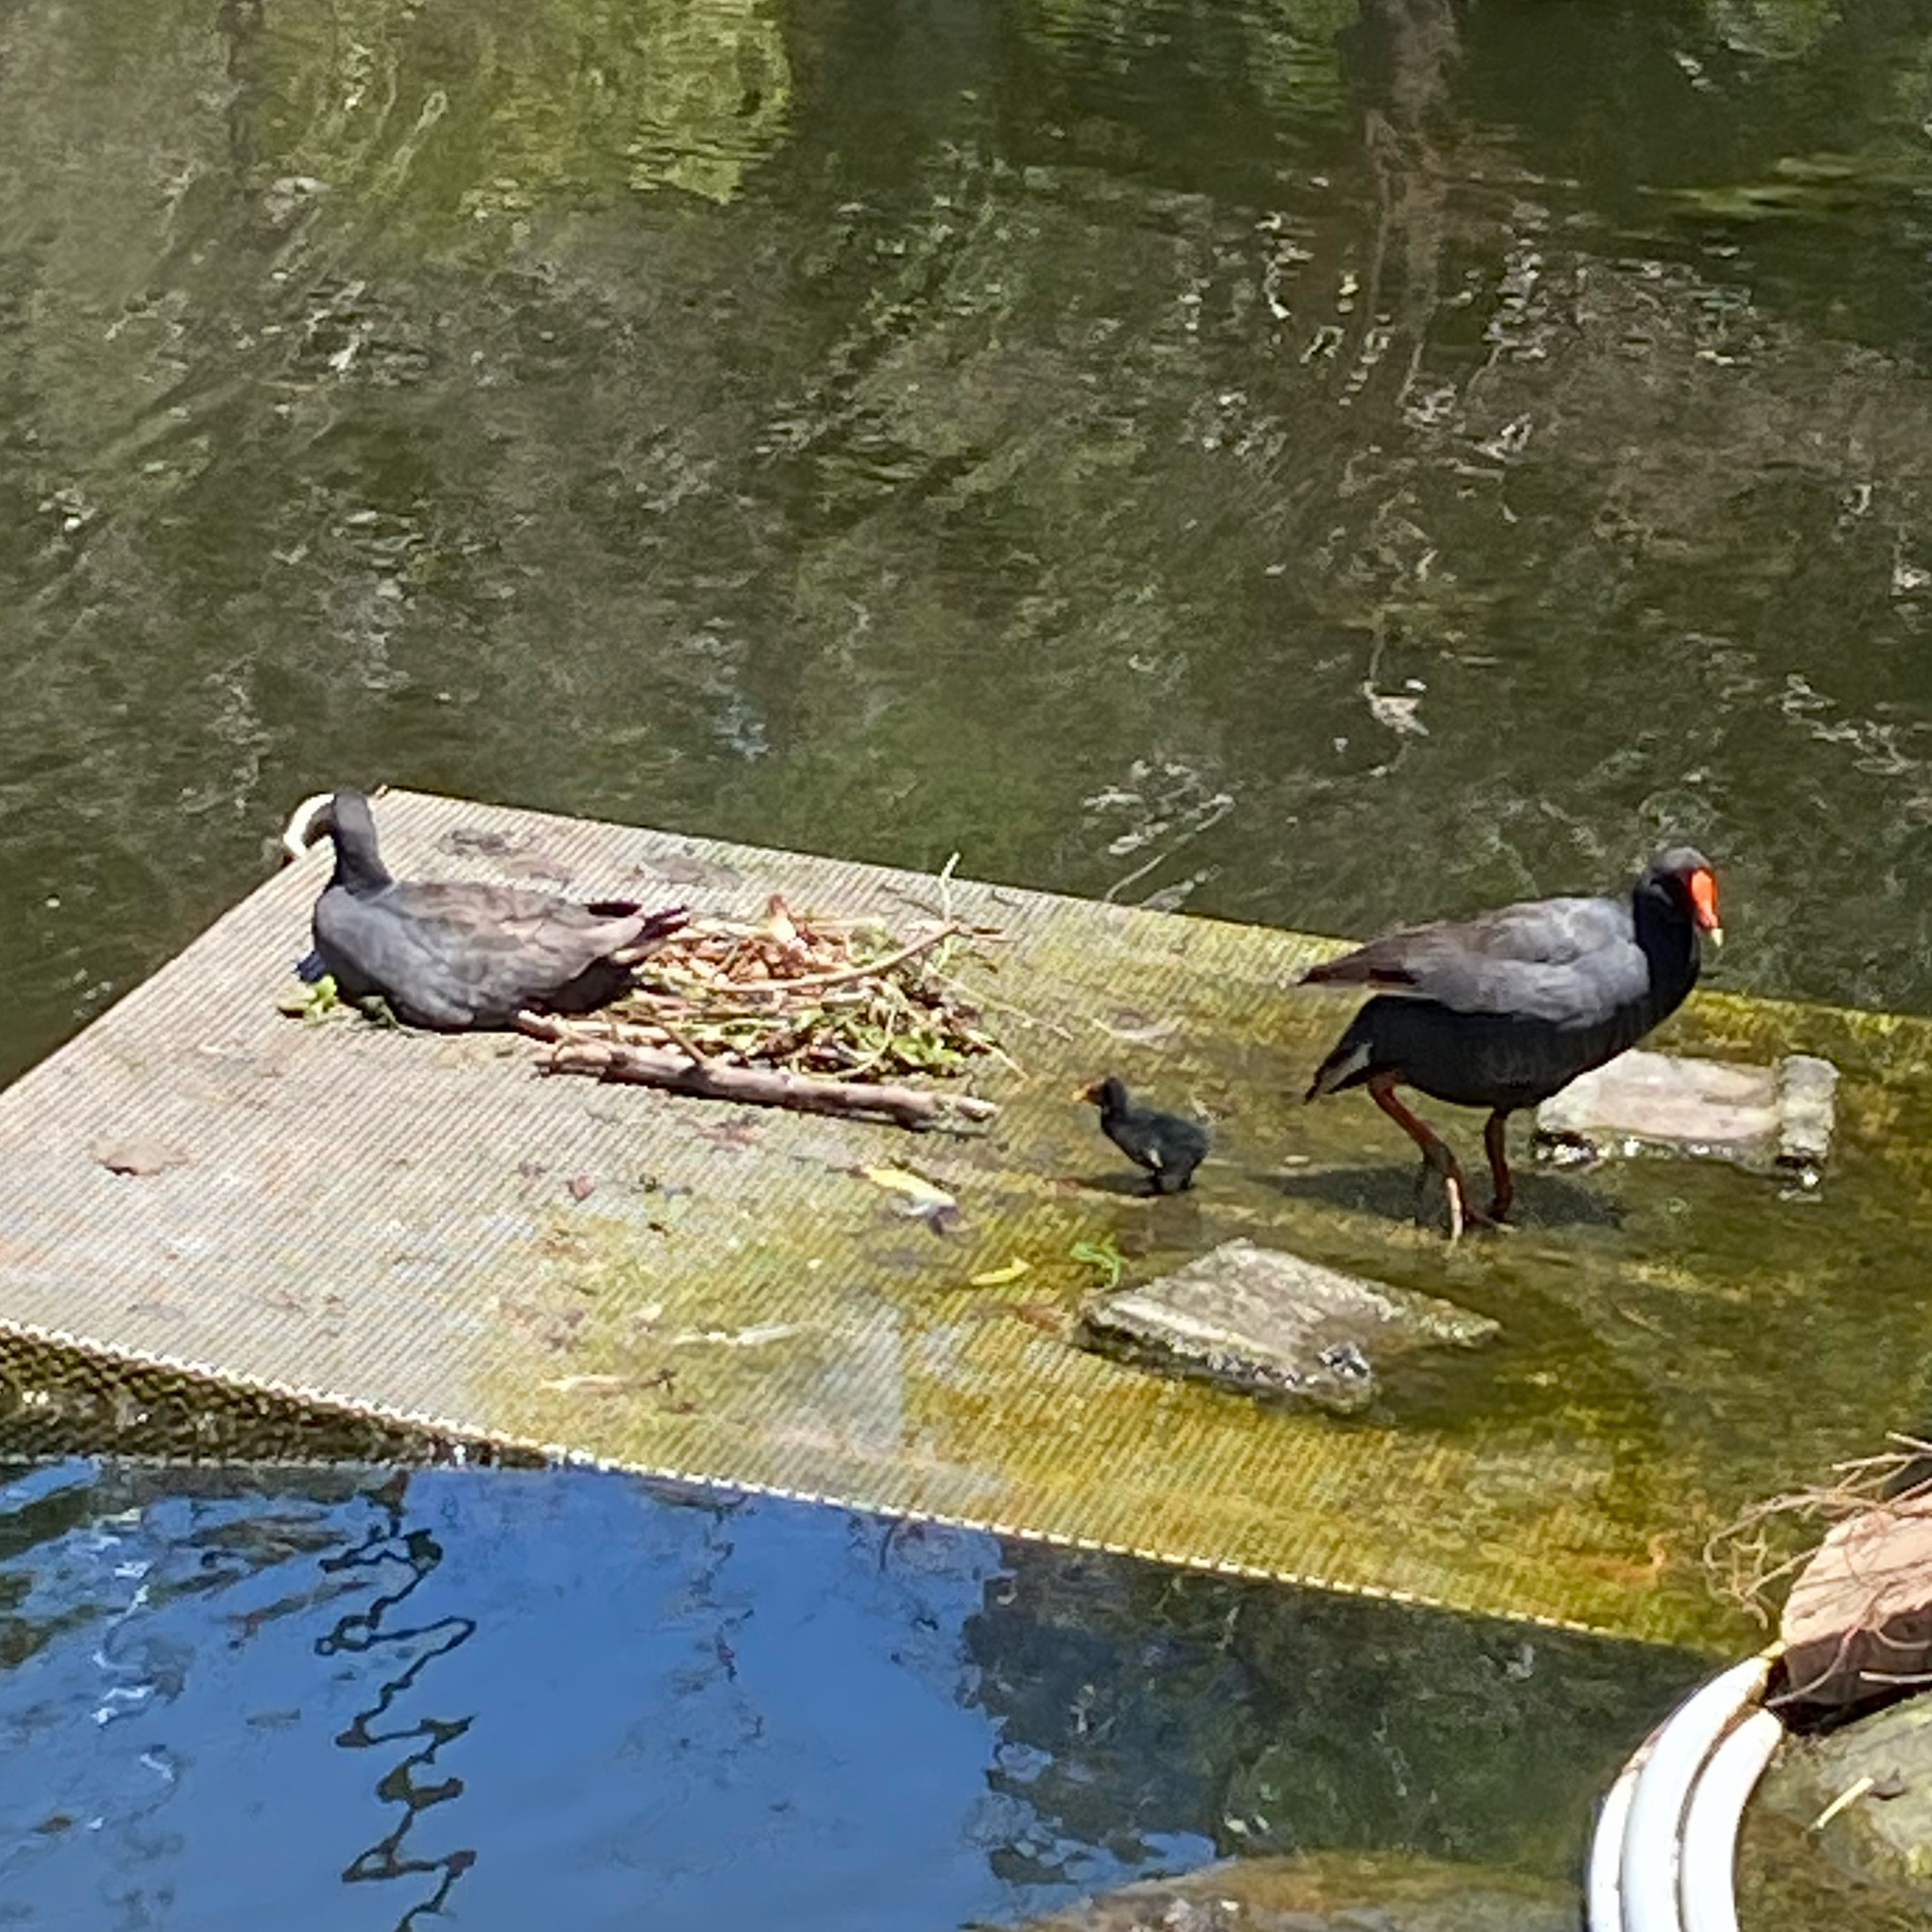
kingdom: Animalia
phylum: Chordata
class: Aves
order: Gruiformes
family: Rallidae
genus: Gallinula
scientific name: Gallinula tenebrosa
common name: Dusky moorhen
